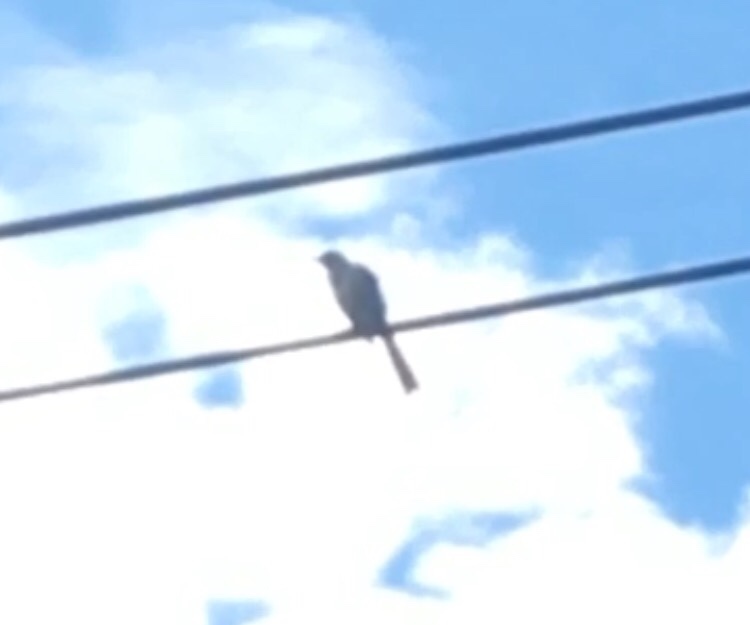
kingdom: Animalia
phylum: Chordata
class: Aves
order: Passeriformes
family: Mimidae
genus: Mimus
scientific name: Mimus polyglottos
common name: Northern mockingbird
